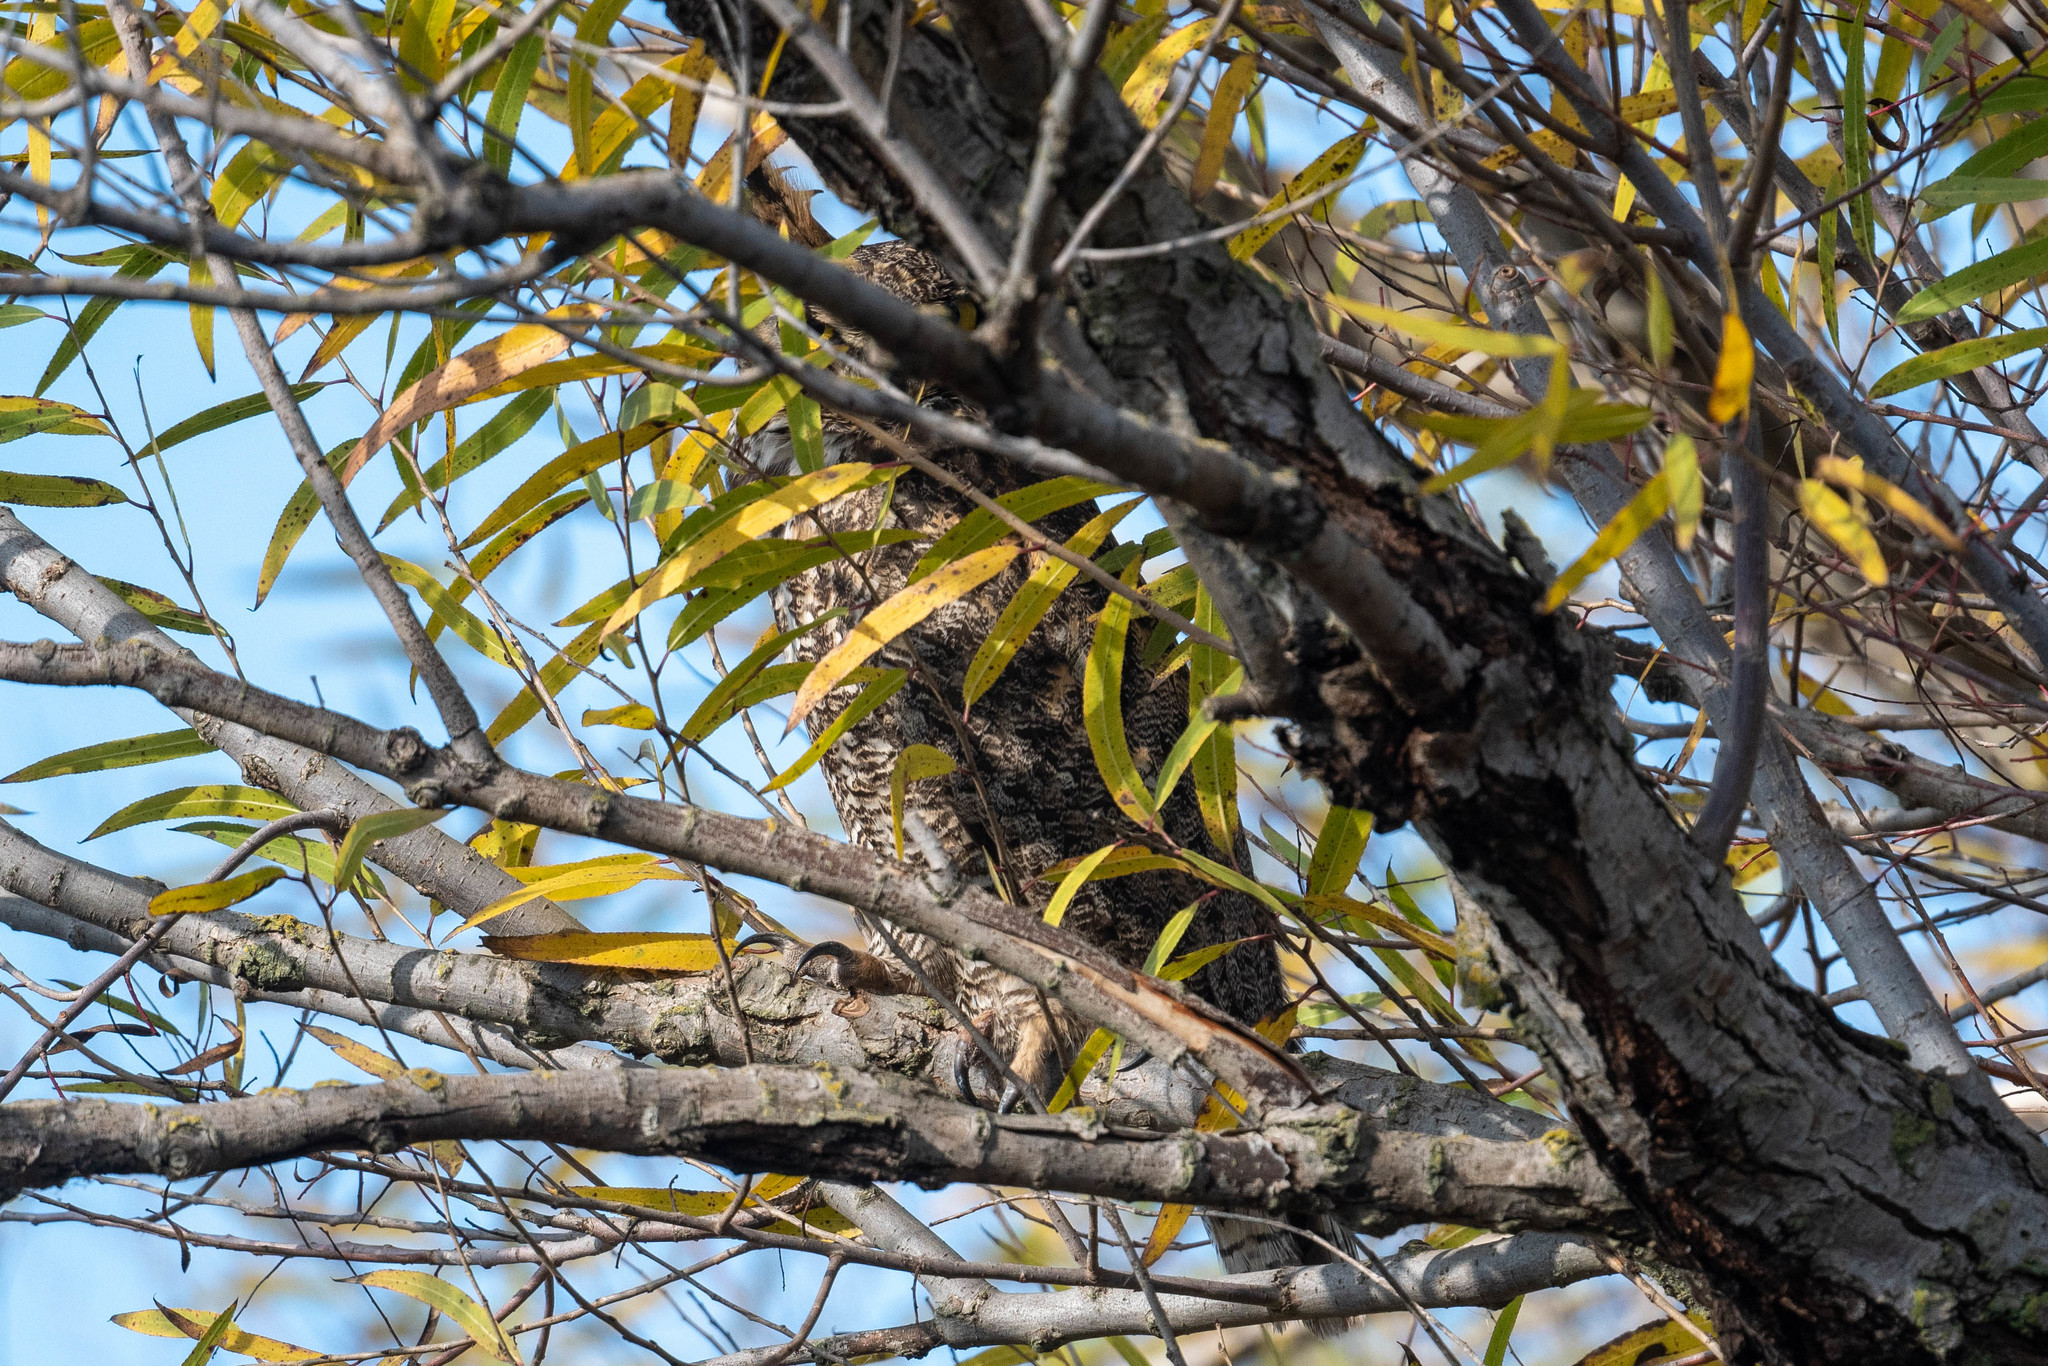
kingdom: Animalia
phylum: Chordata
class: Aves
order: Strigiformes
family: Strigidae
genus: Bubo
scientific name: Bubo virginianus
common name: Great horned owl
